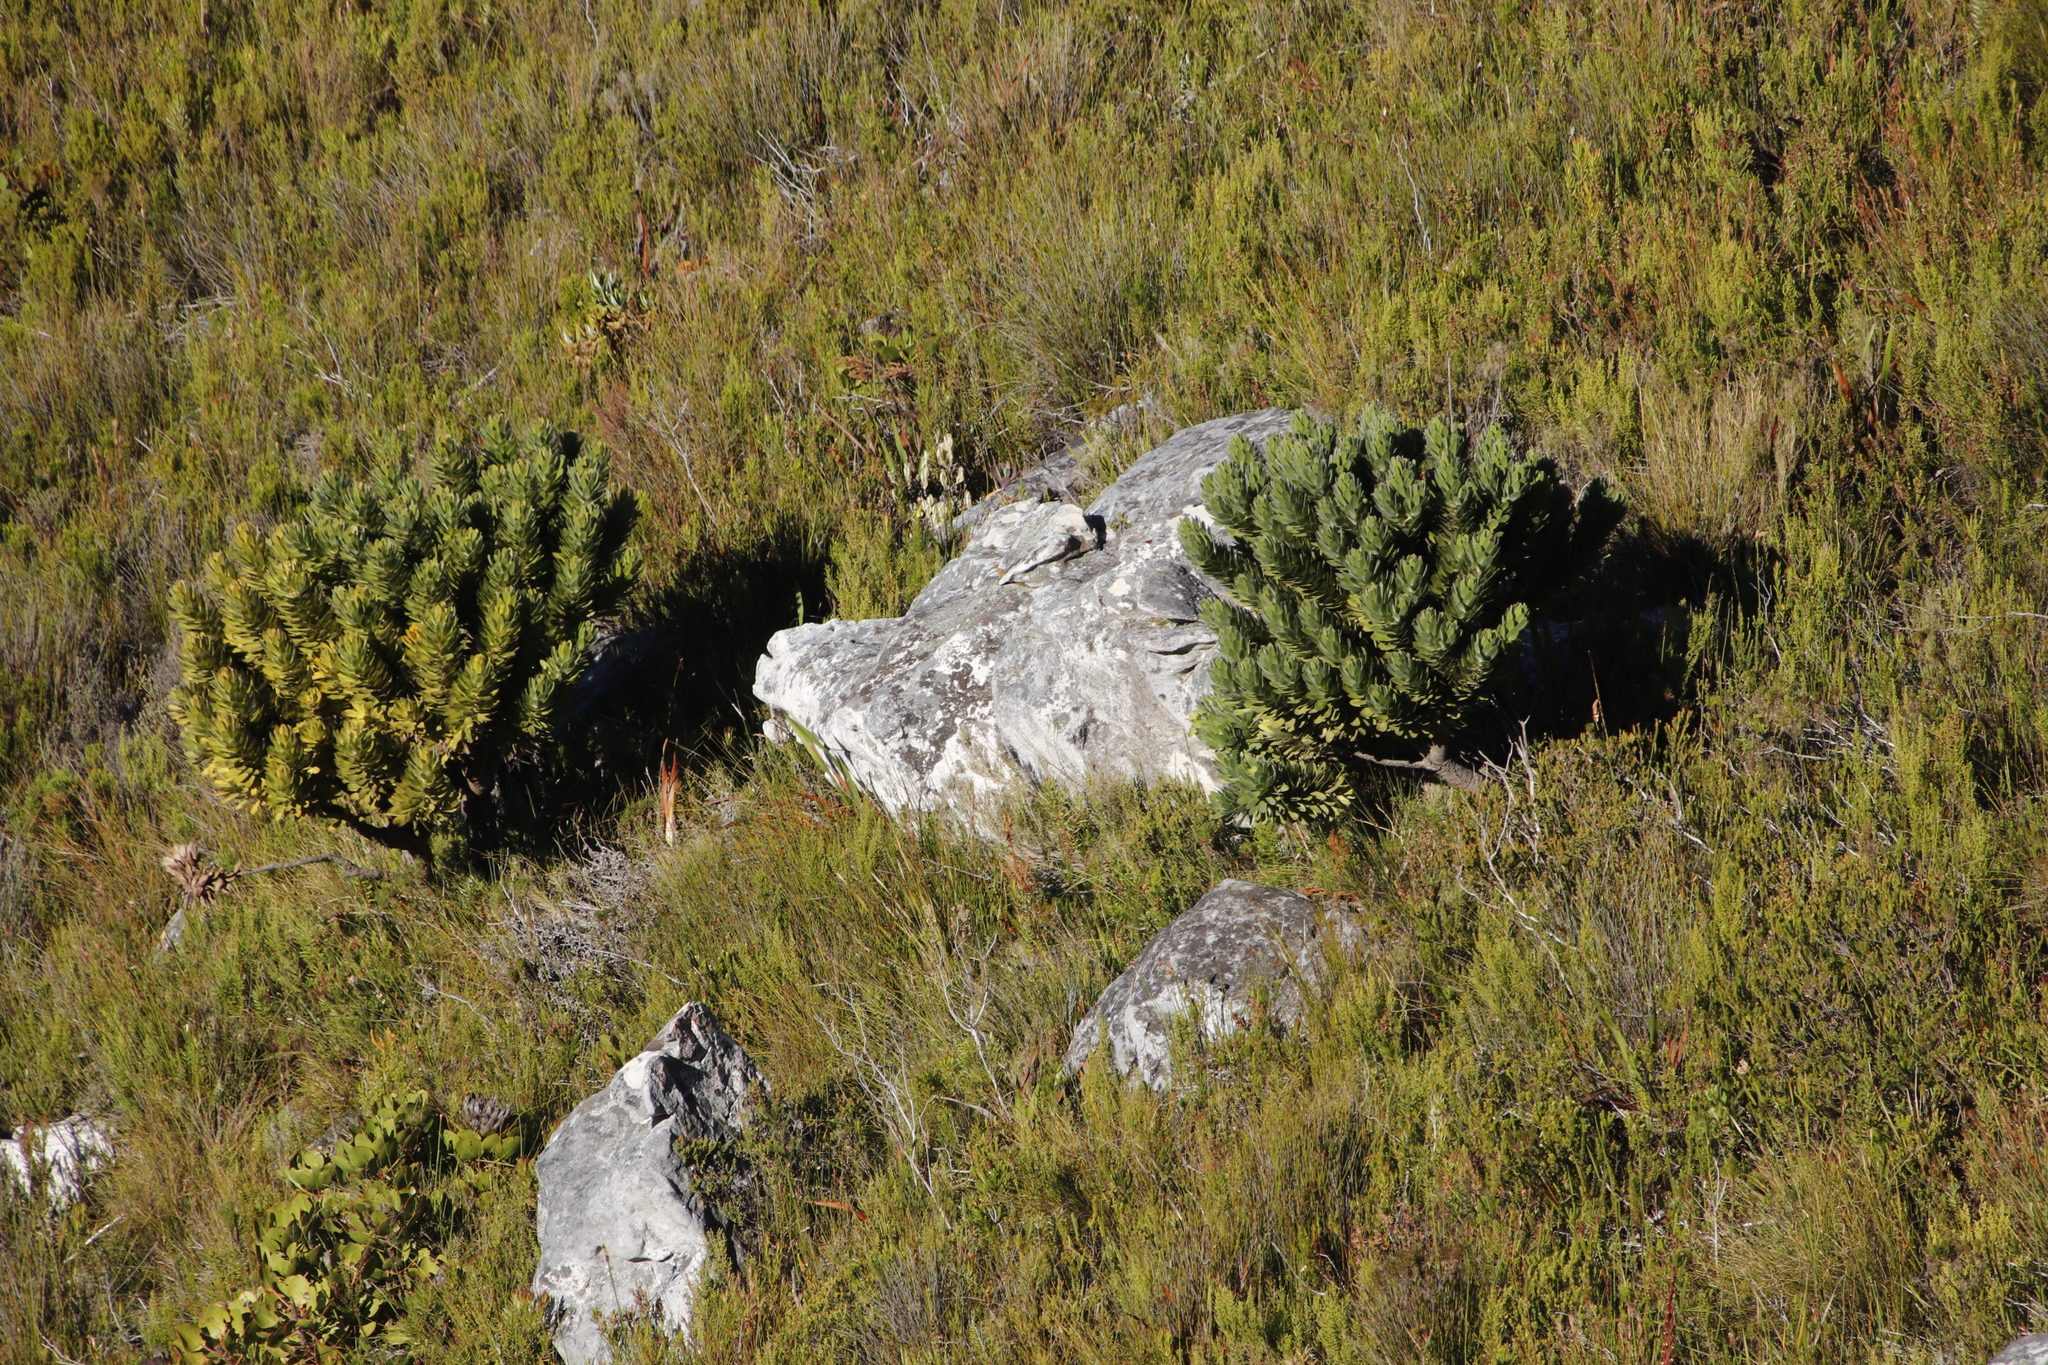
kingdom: Plantae
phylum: Tracheophyta
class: Magnoliopsida
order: Proteales
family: Proteaceae
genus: Mimetes
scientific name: Mimetes fimbriifolius
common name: Fringed bottlebrush
